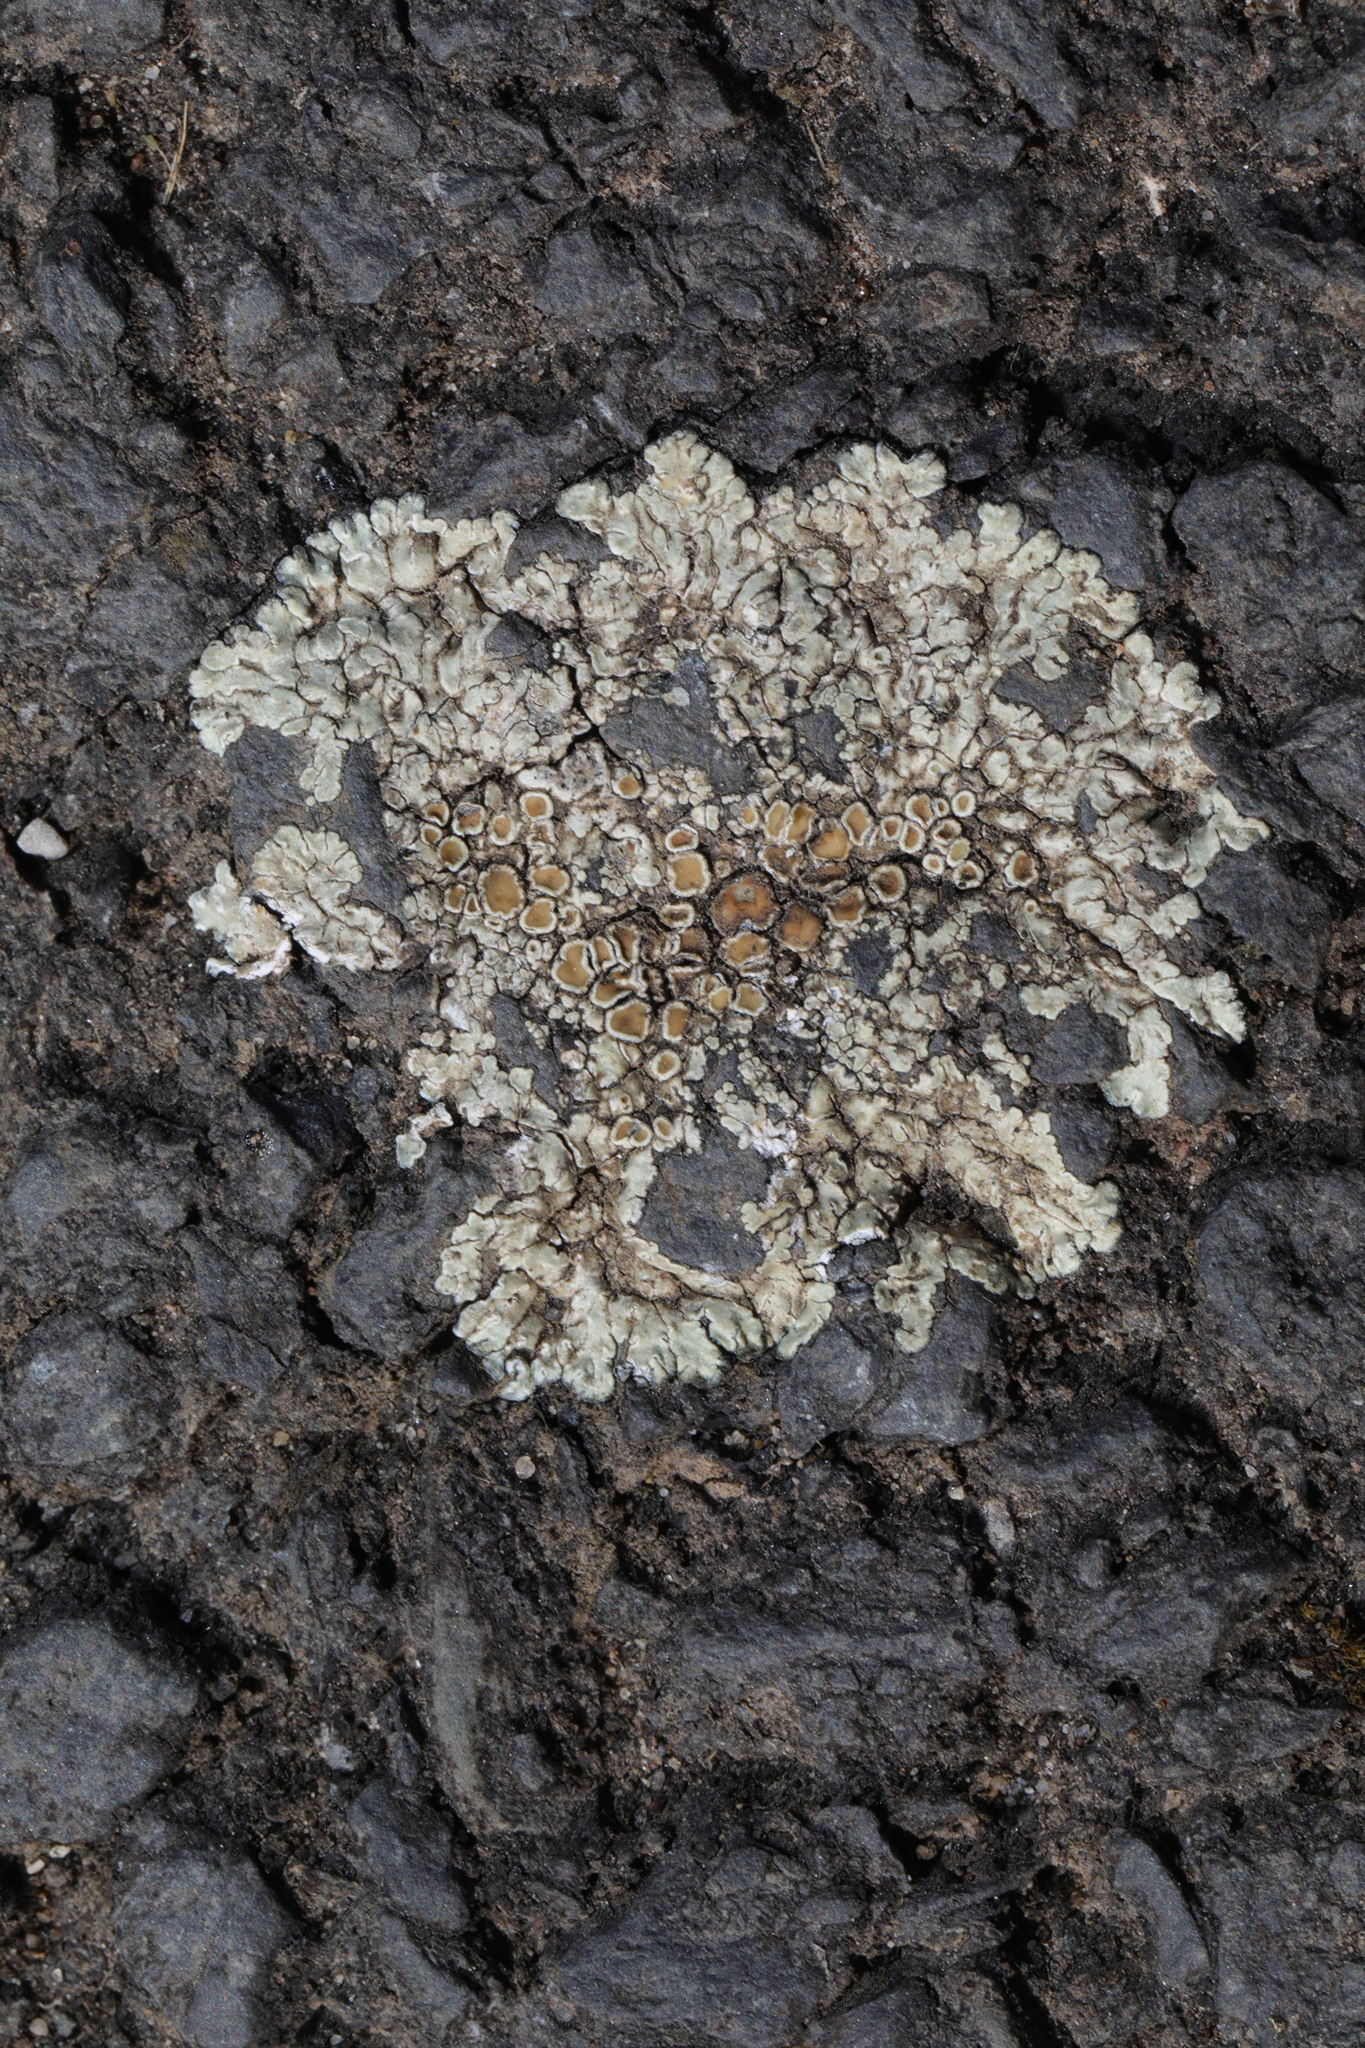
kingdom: Fungi
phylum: Ascomycota
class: Lecanoromycetes
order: Lecanorales
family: Lecanoraceae
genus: Protoparmeliopsis
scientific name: Protoparmeliopsis muralis
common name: Stonewall rim lichen
